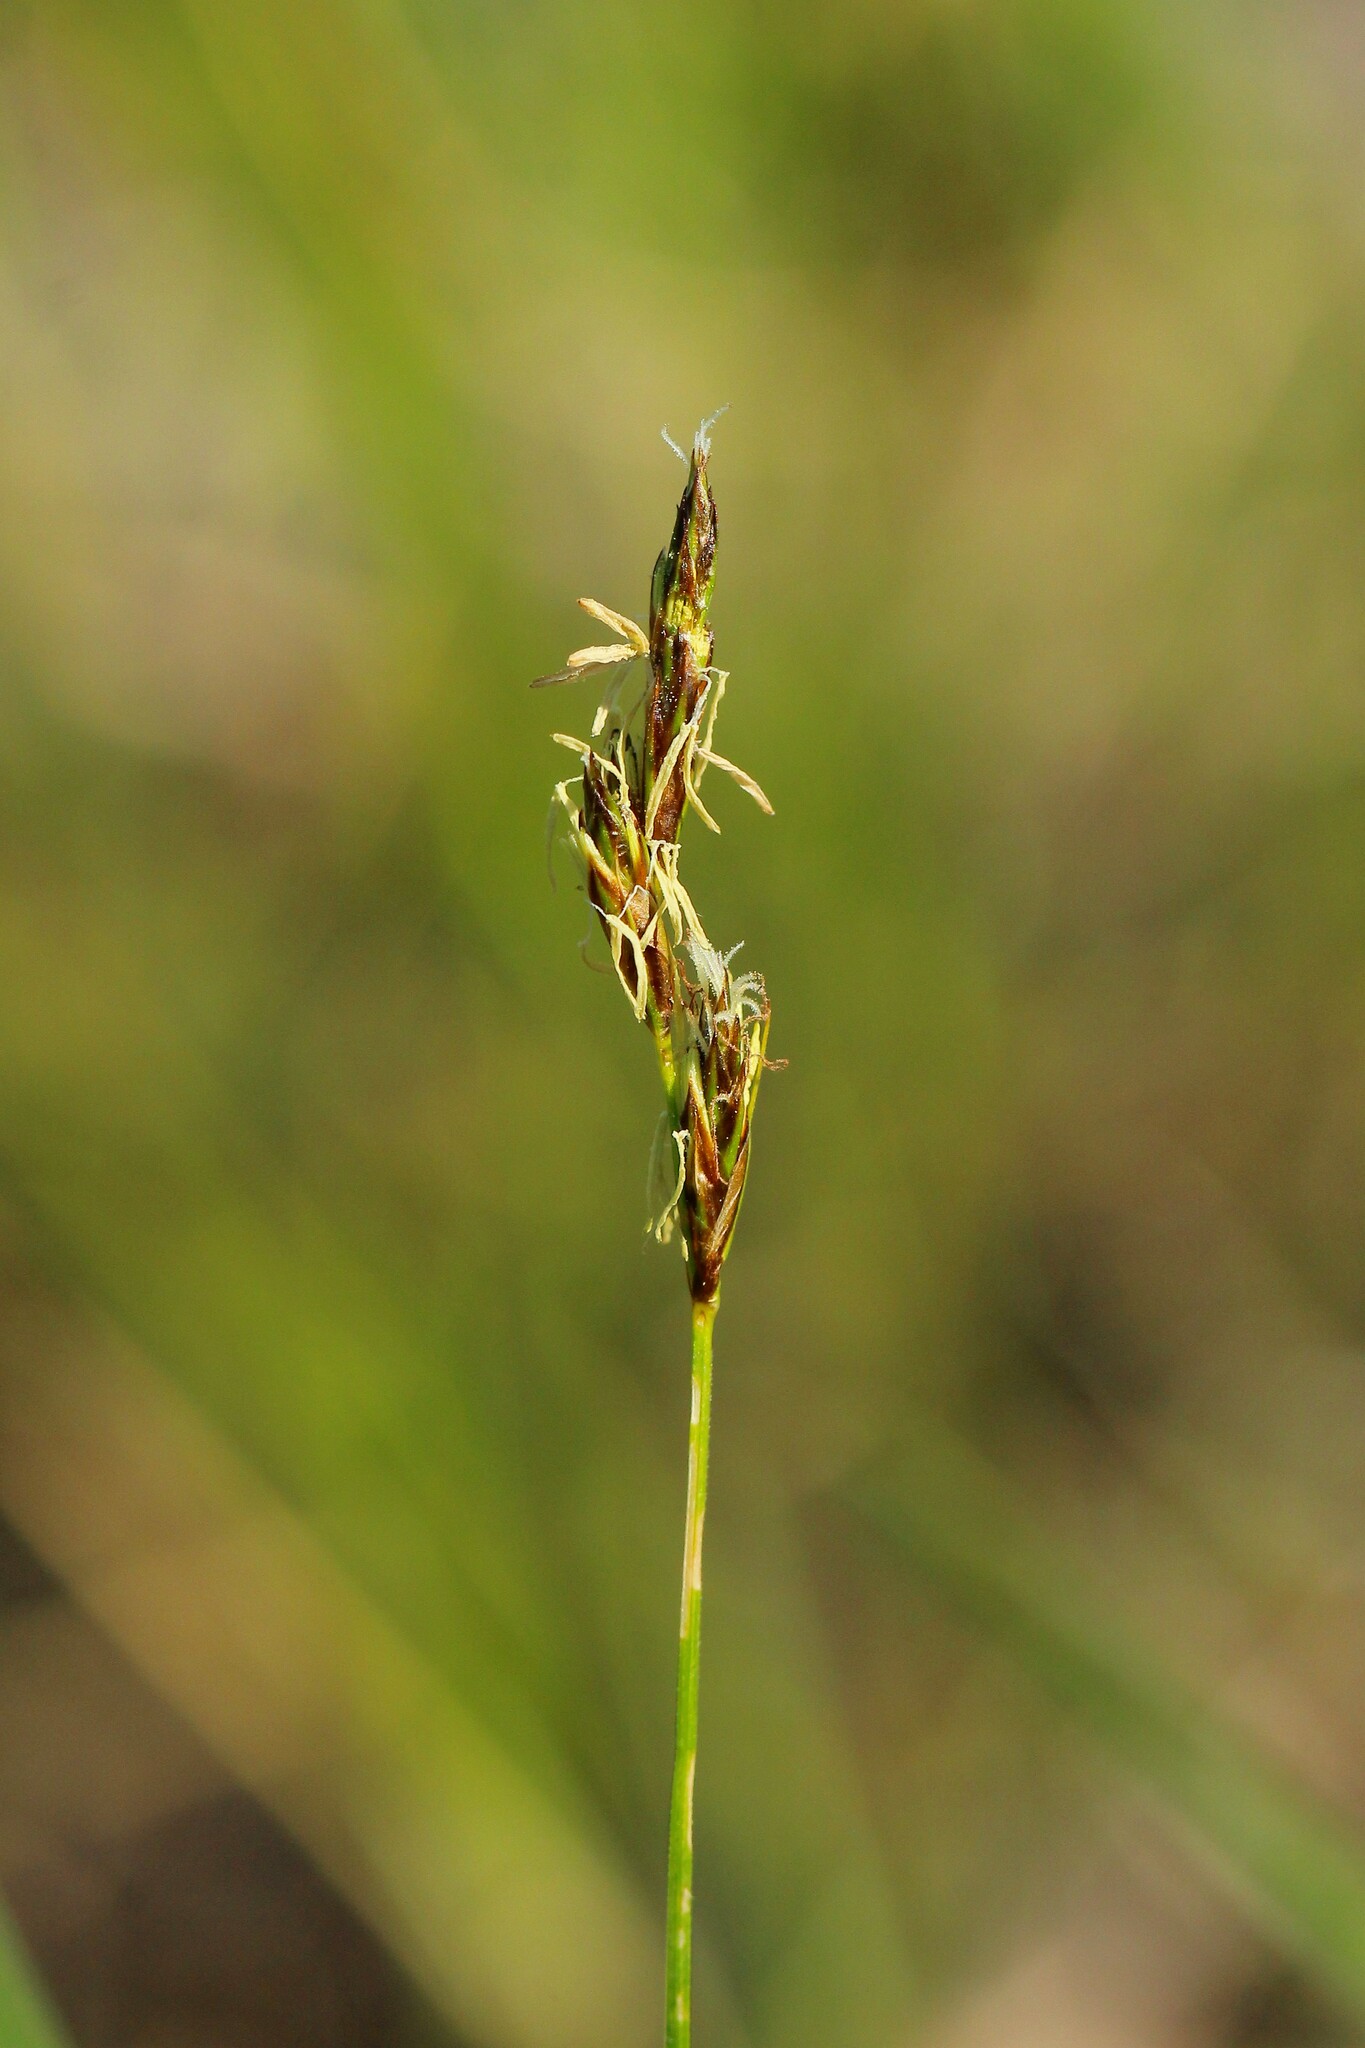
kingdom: Plantae
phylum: Tracheophyta
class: Liliopsida
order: Poales
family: Cyperaceae
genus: Carex
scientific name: Carex colchica
